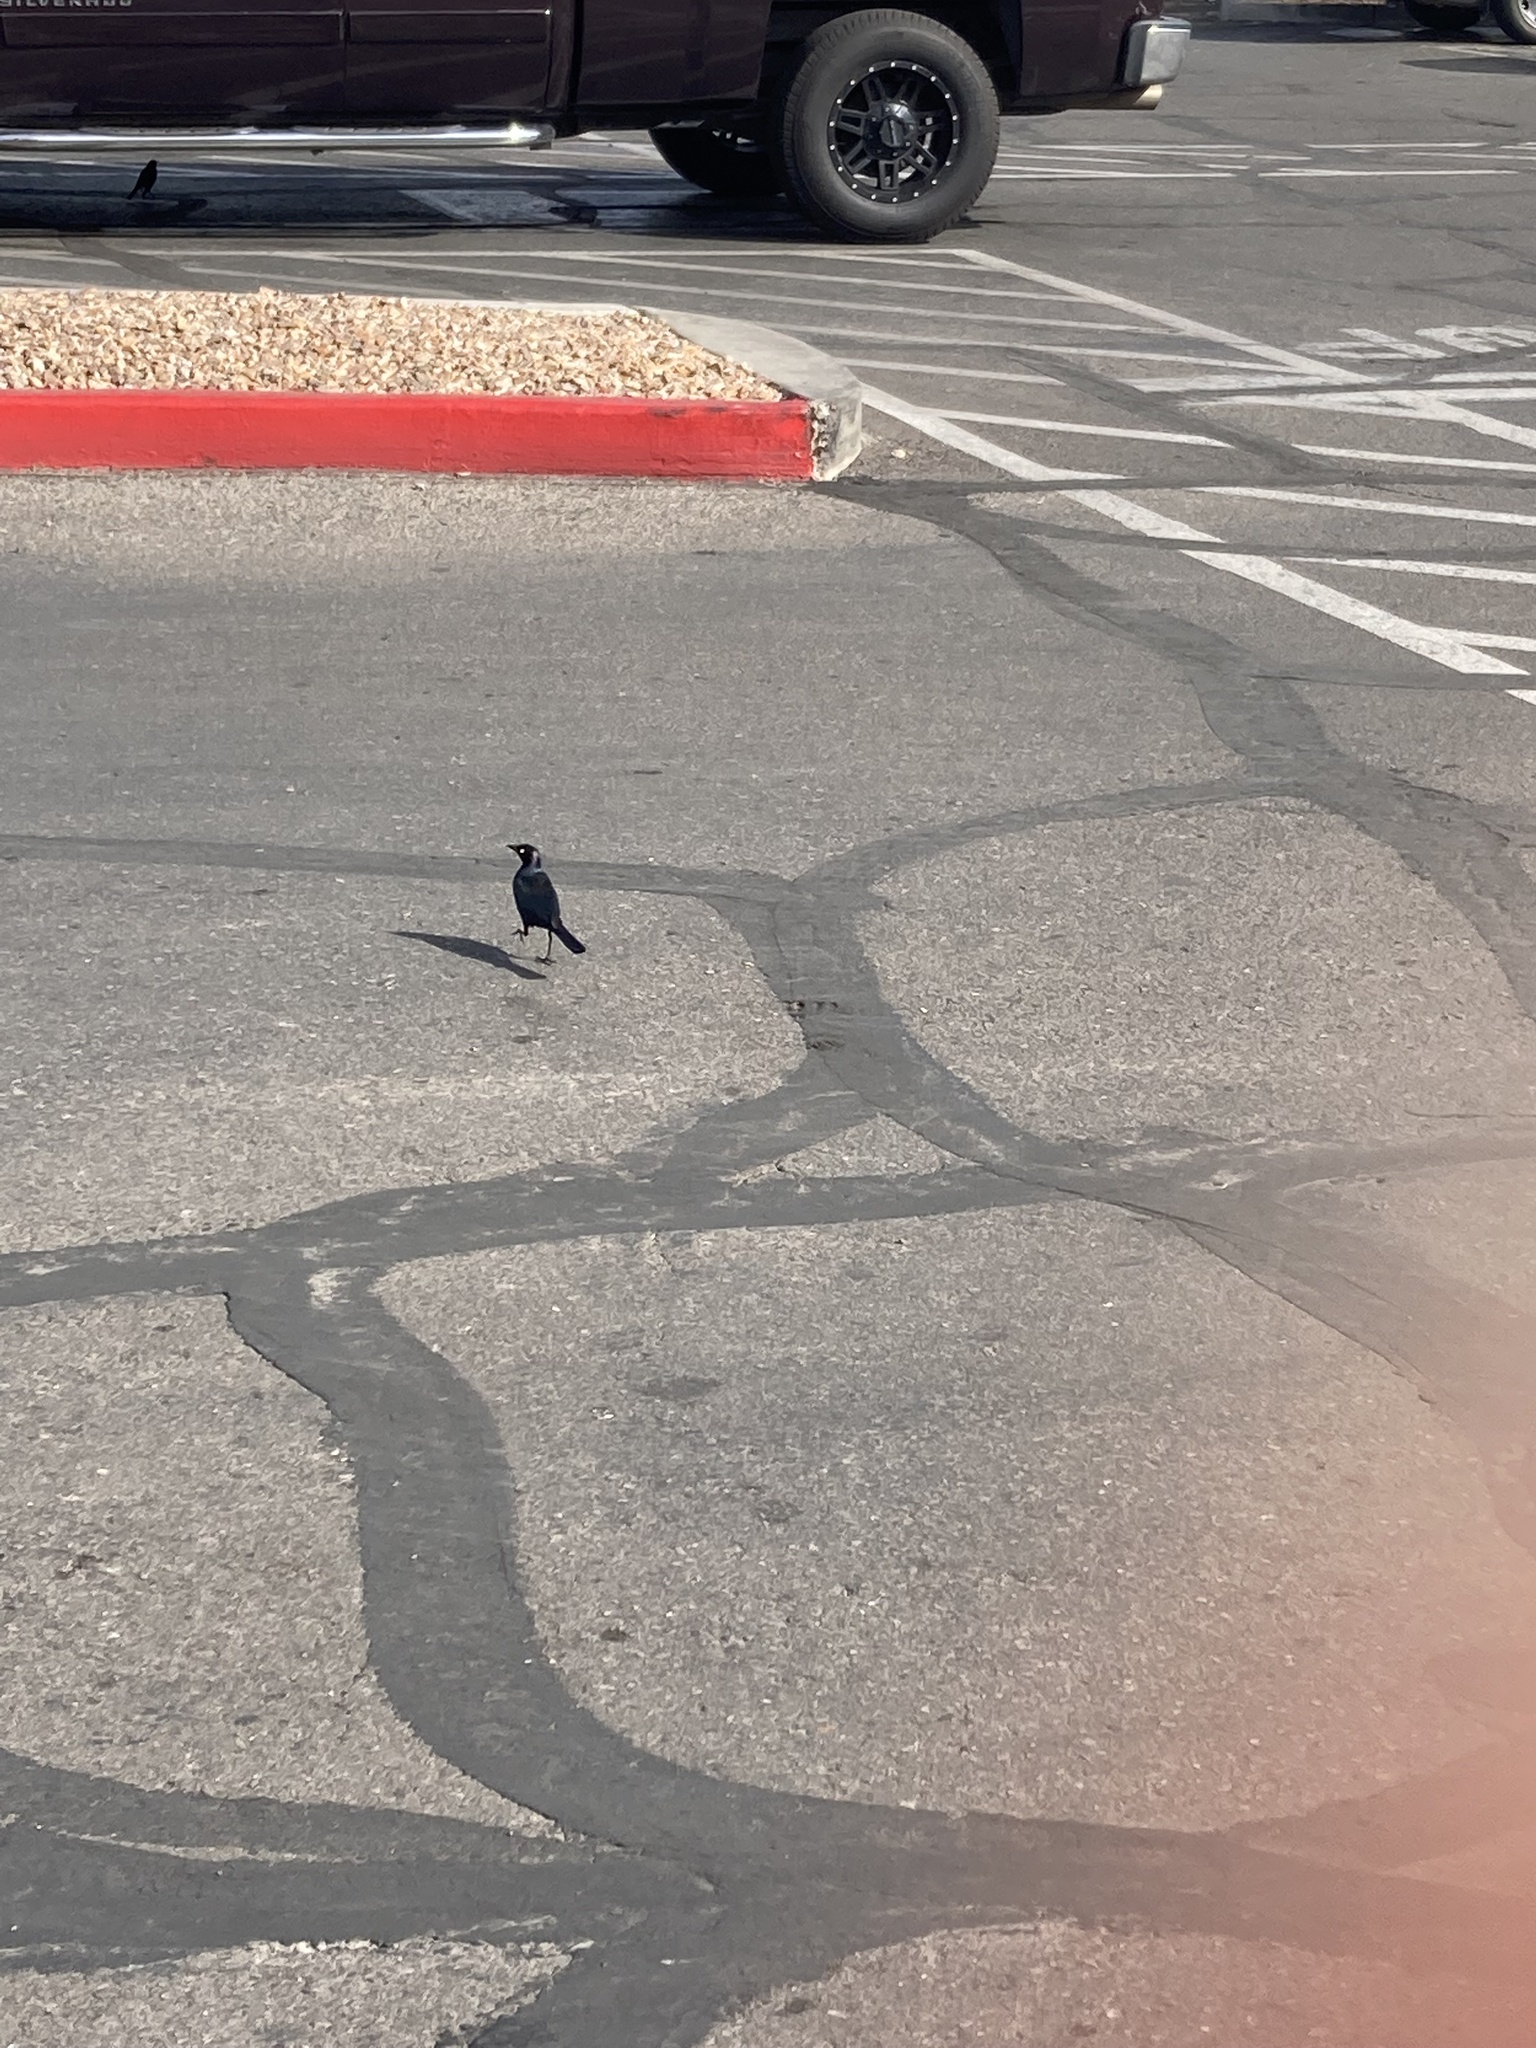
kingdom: Animalia
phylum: Chordata
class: Aves
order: Passeriformes
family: Icteridae
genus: Euphagus
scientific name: Euphagus cyanocephalus
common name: Brewer's blackbird
